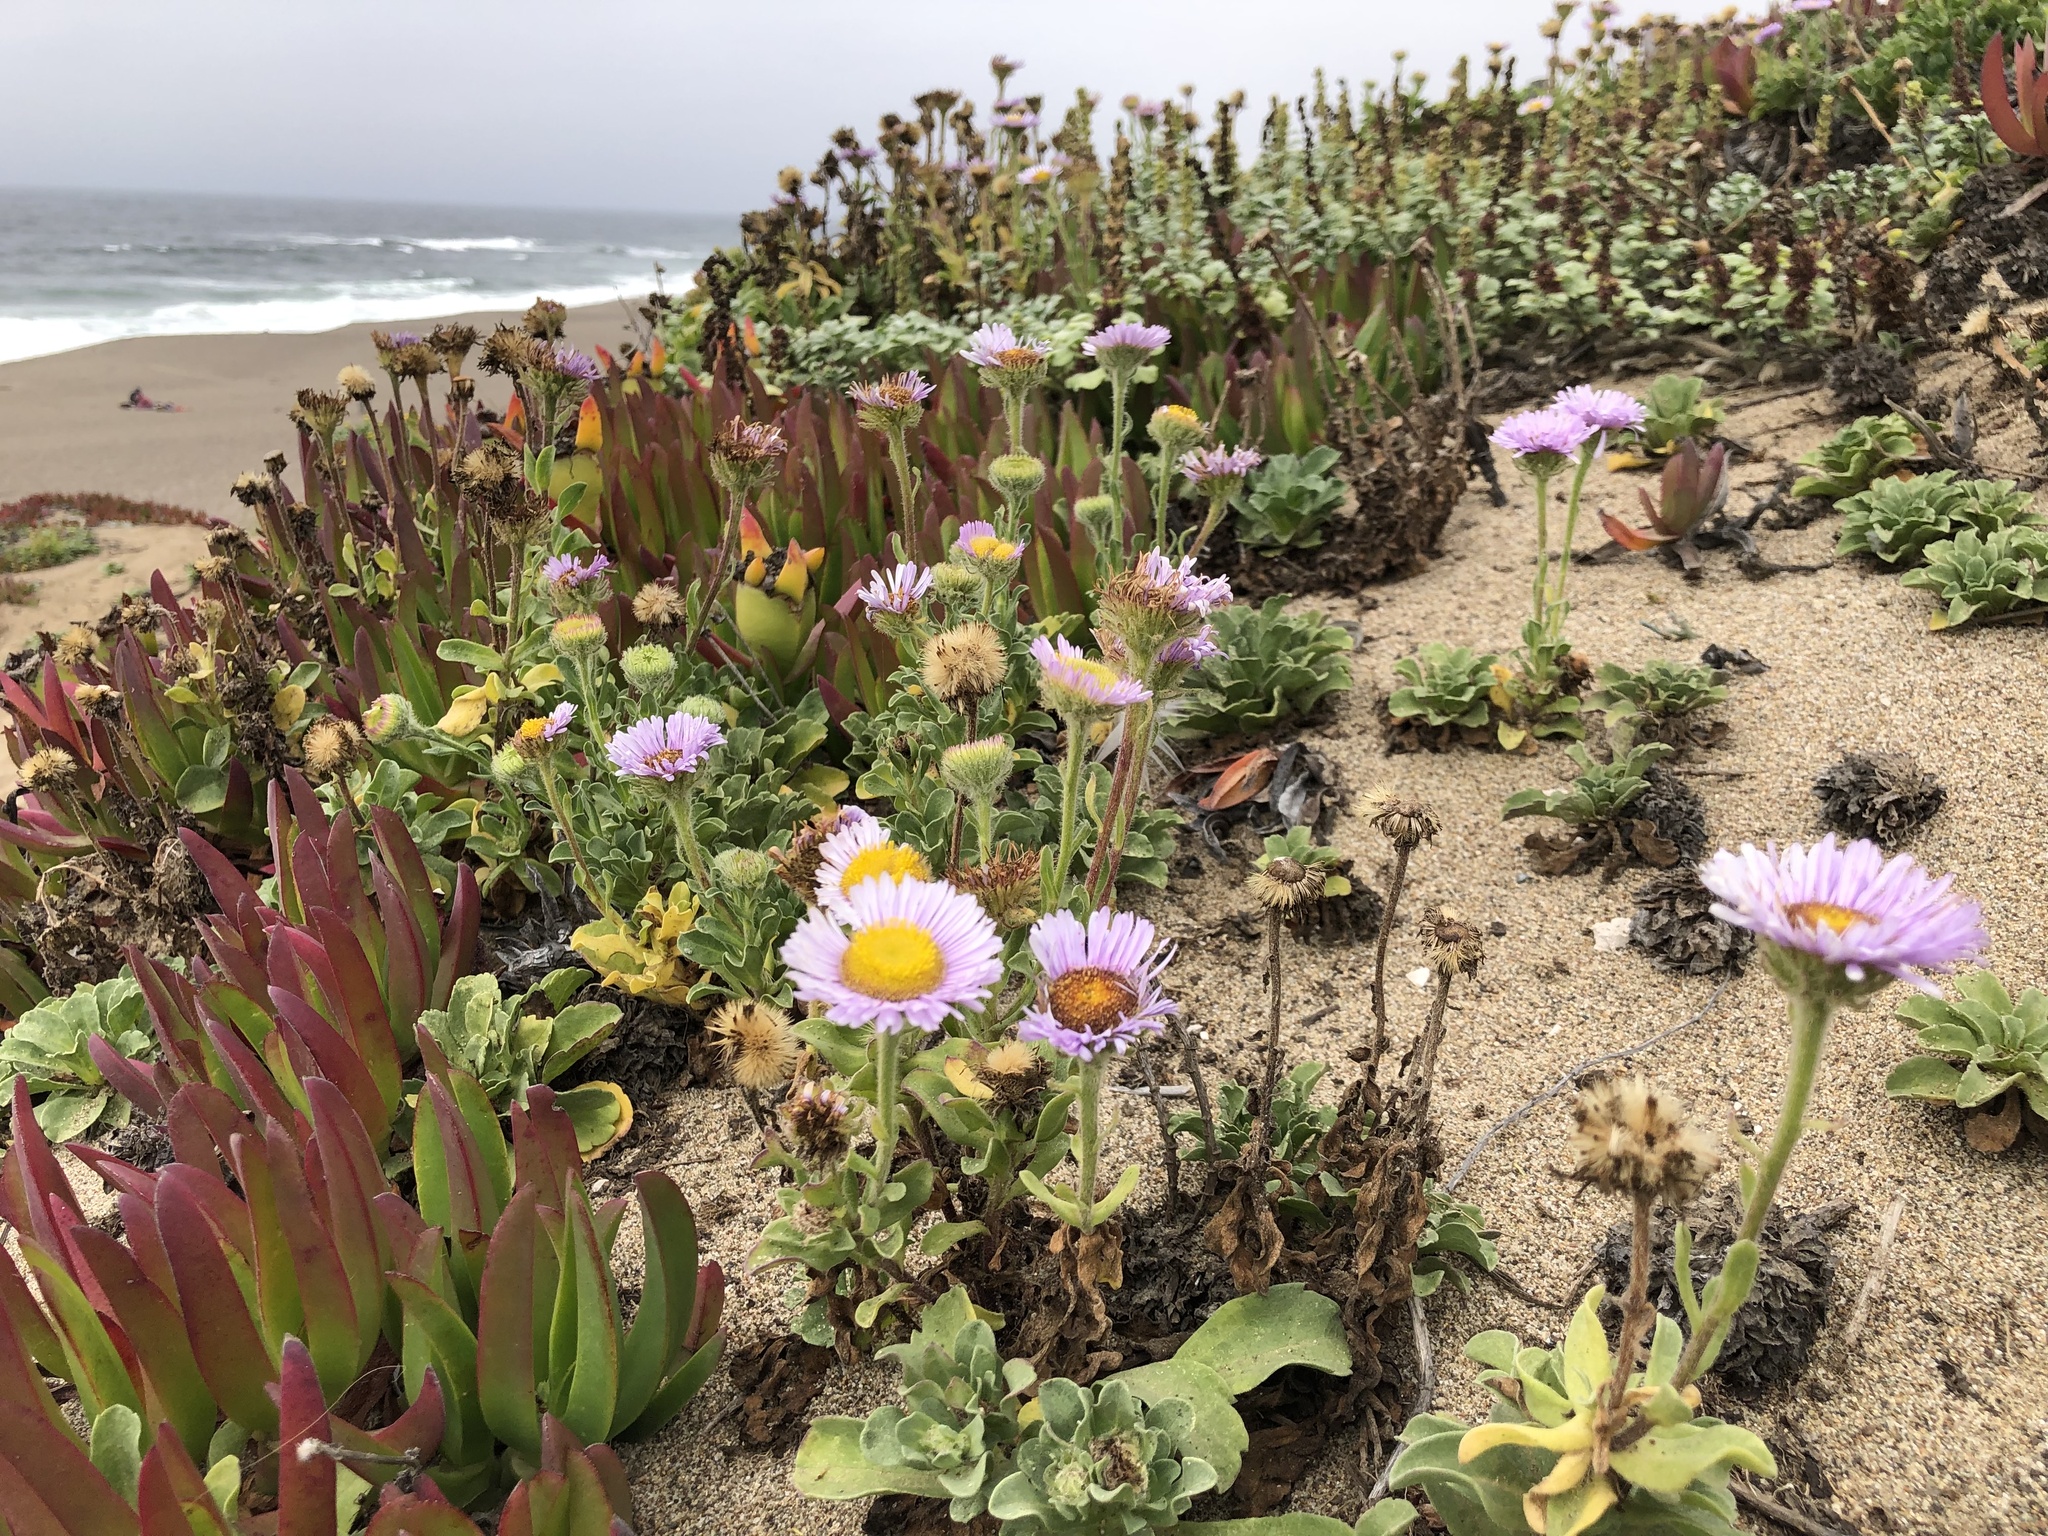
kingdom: Plantae
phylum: Tracheophyta
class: Magnoliopsida
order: Asterales
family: Asteraceae
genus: Erigeron
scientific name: Erigeron glaucus
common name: Seaside daisy
